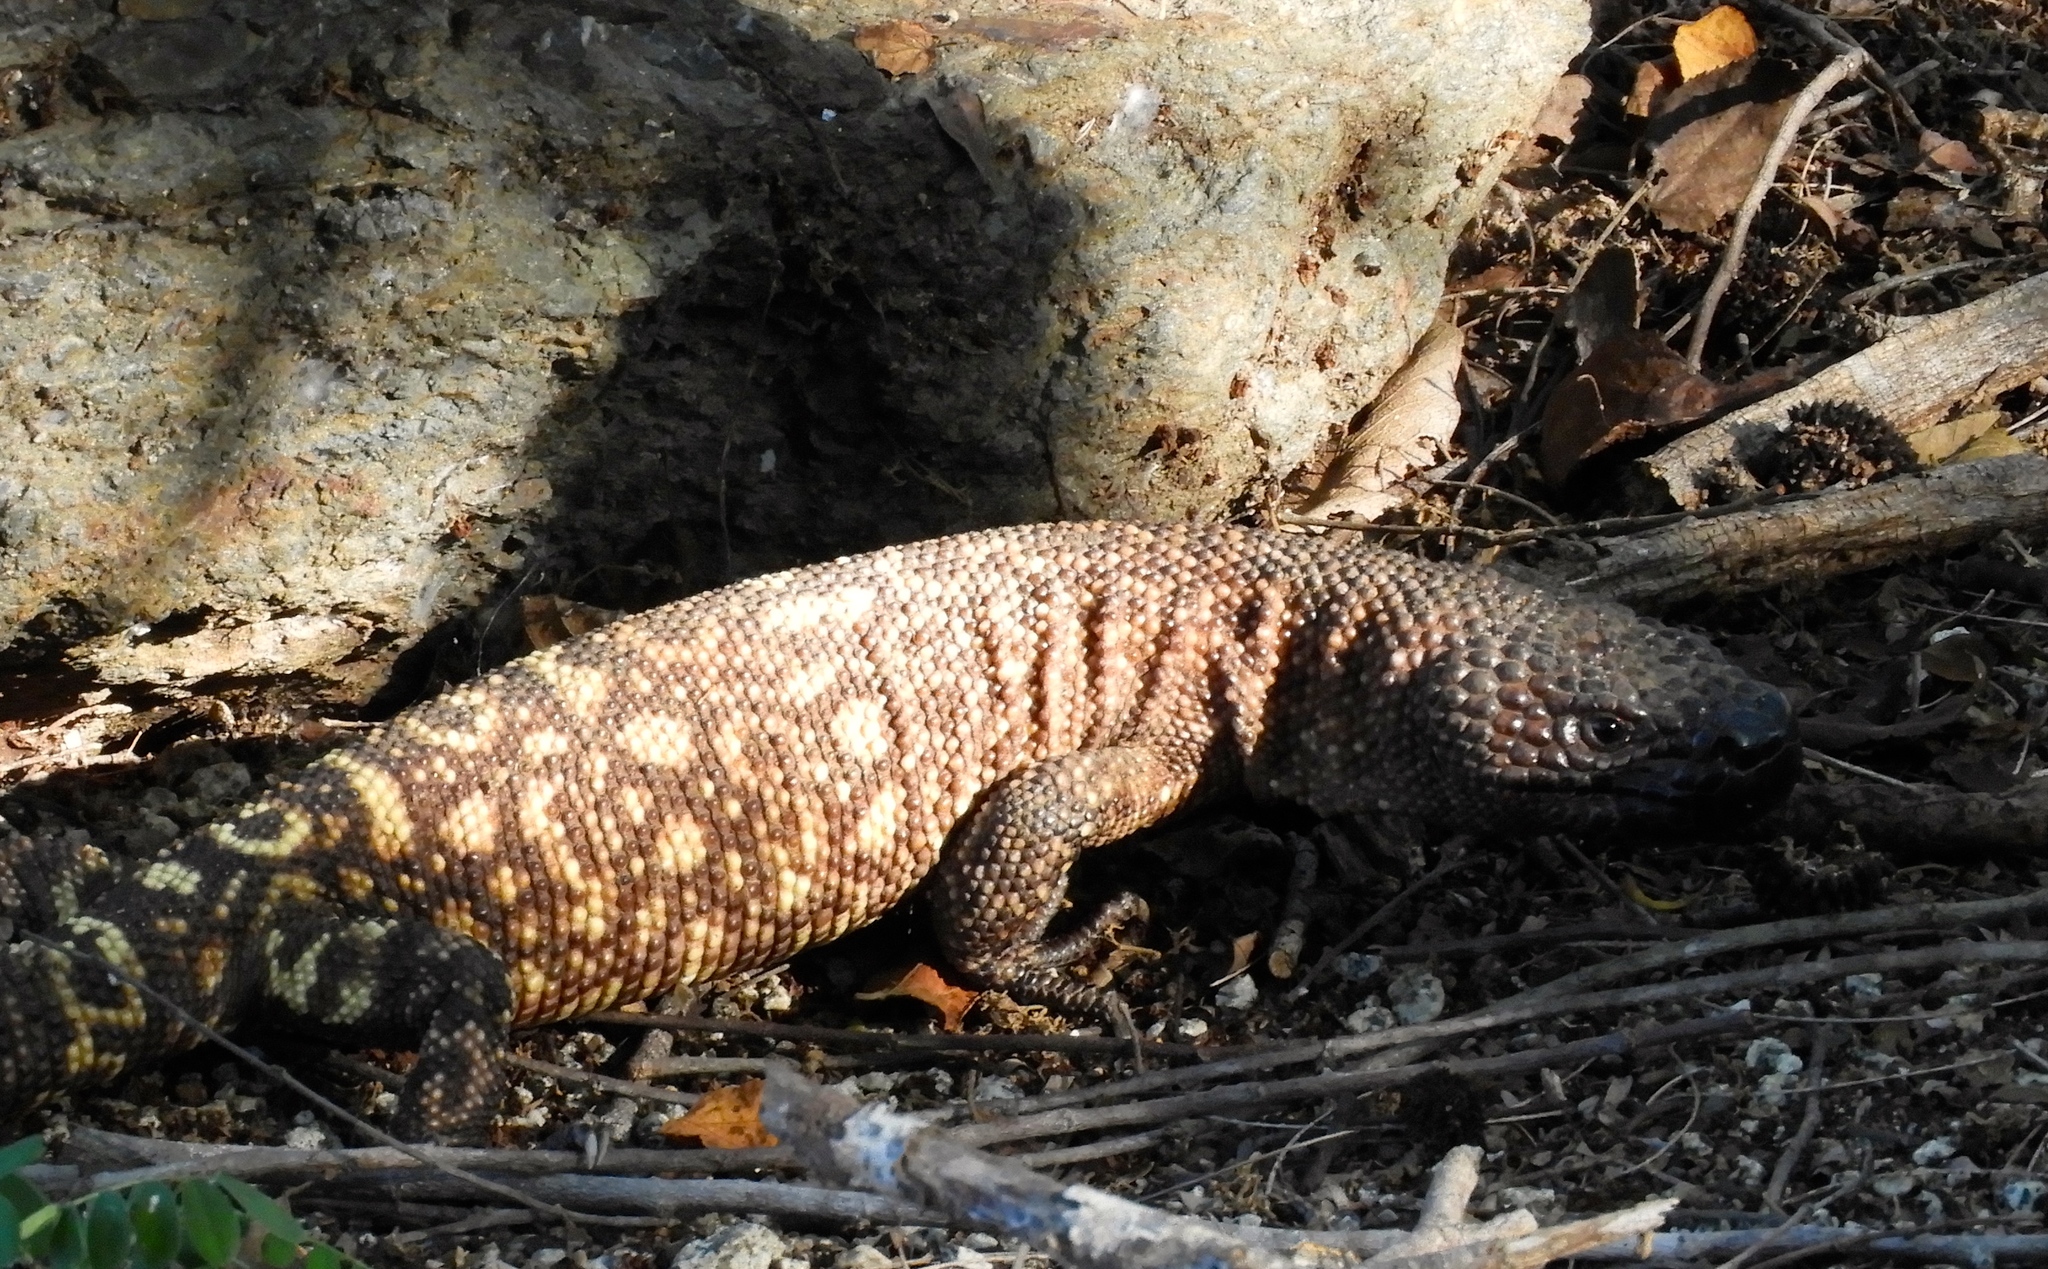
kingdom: Animalia
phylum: Chordata
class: Squamata
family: Helodermatidae
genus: Heloderma
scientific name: Heloderma horridum
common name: Mexican beaded lizard
